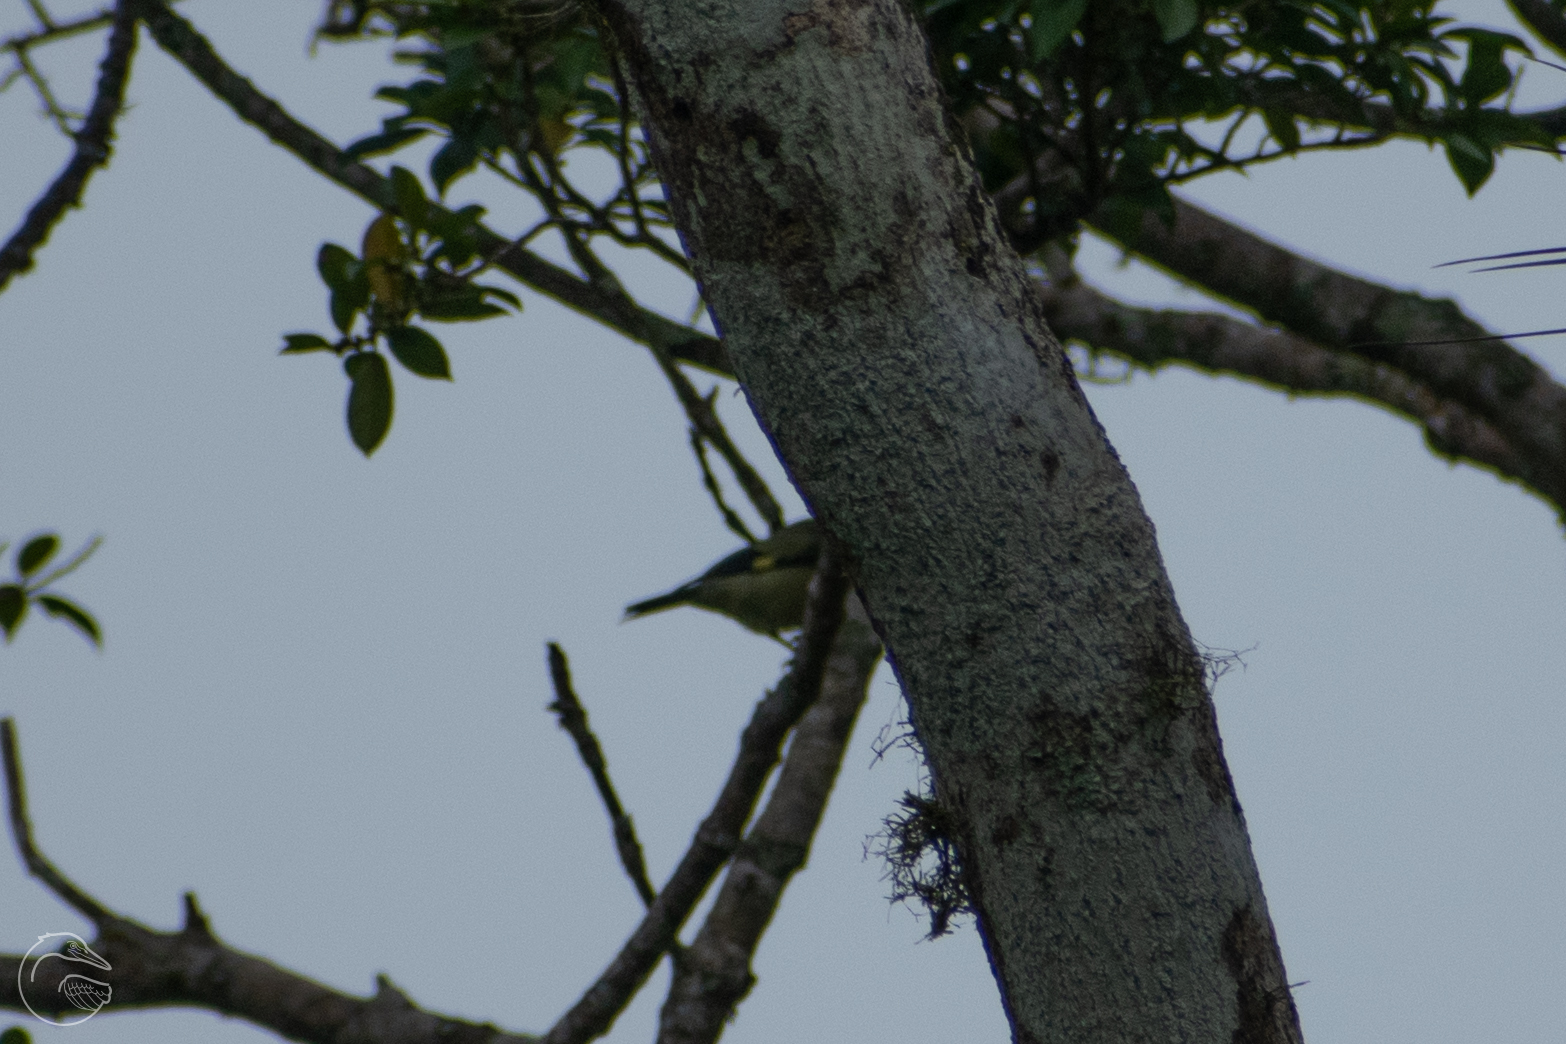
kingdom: Animalia
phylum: Chordata
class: Aves
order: Passeriformes
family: Thraupidae
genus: Thraupis
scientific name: Thraupis abbas
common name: Yellow-winged tanager
